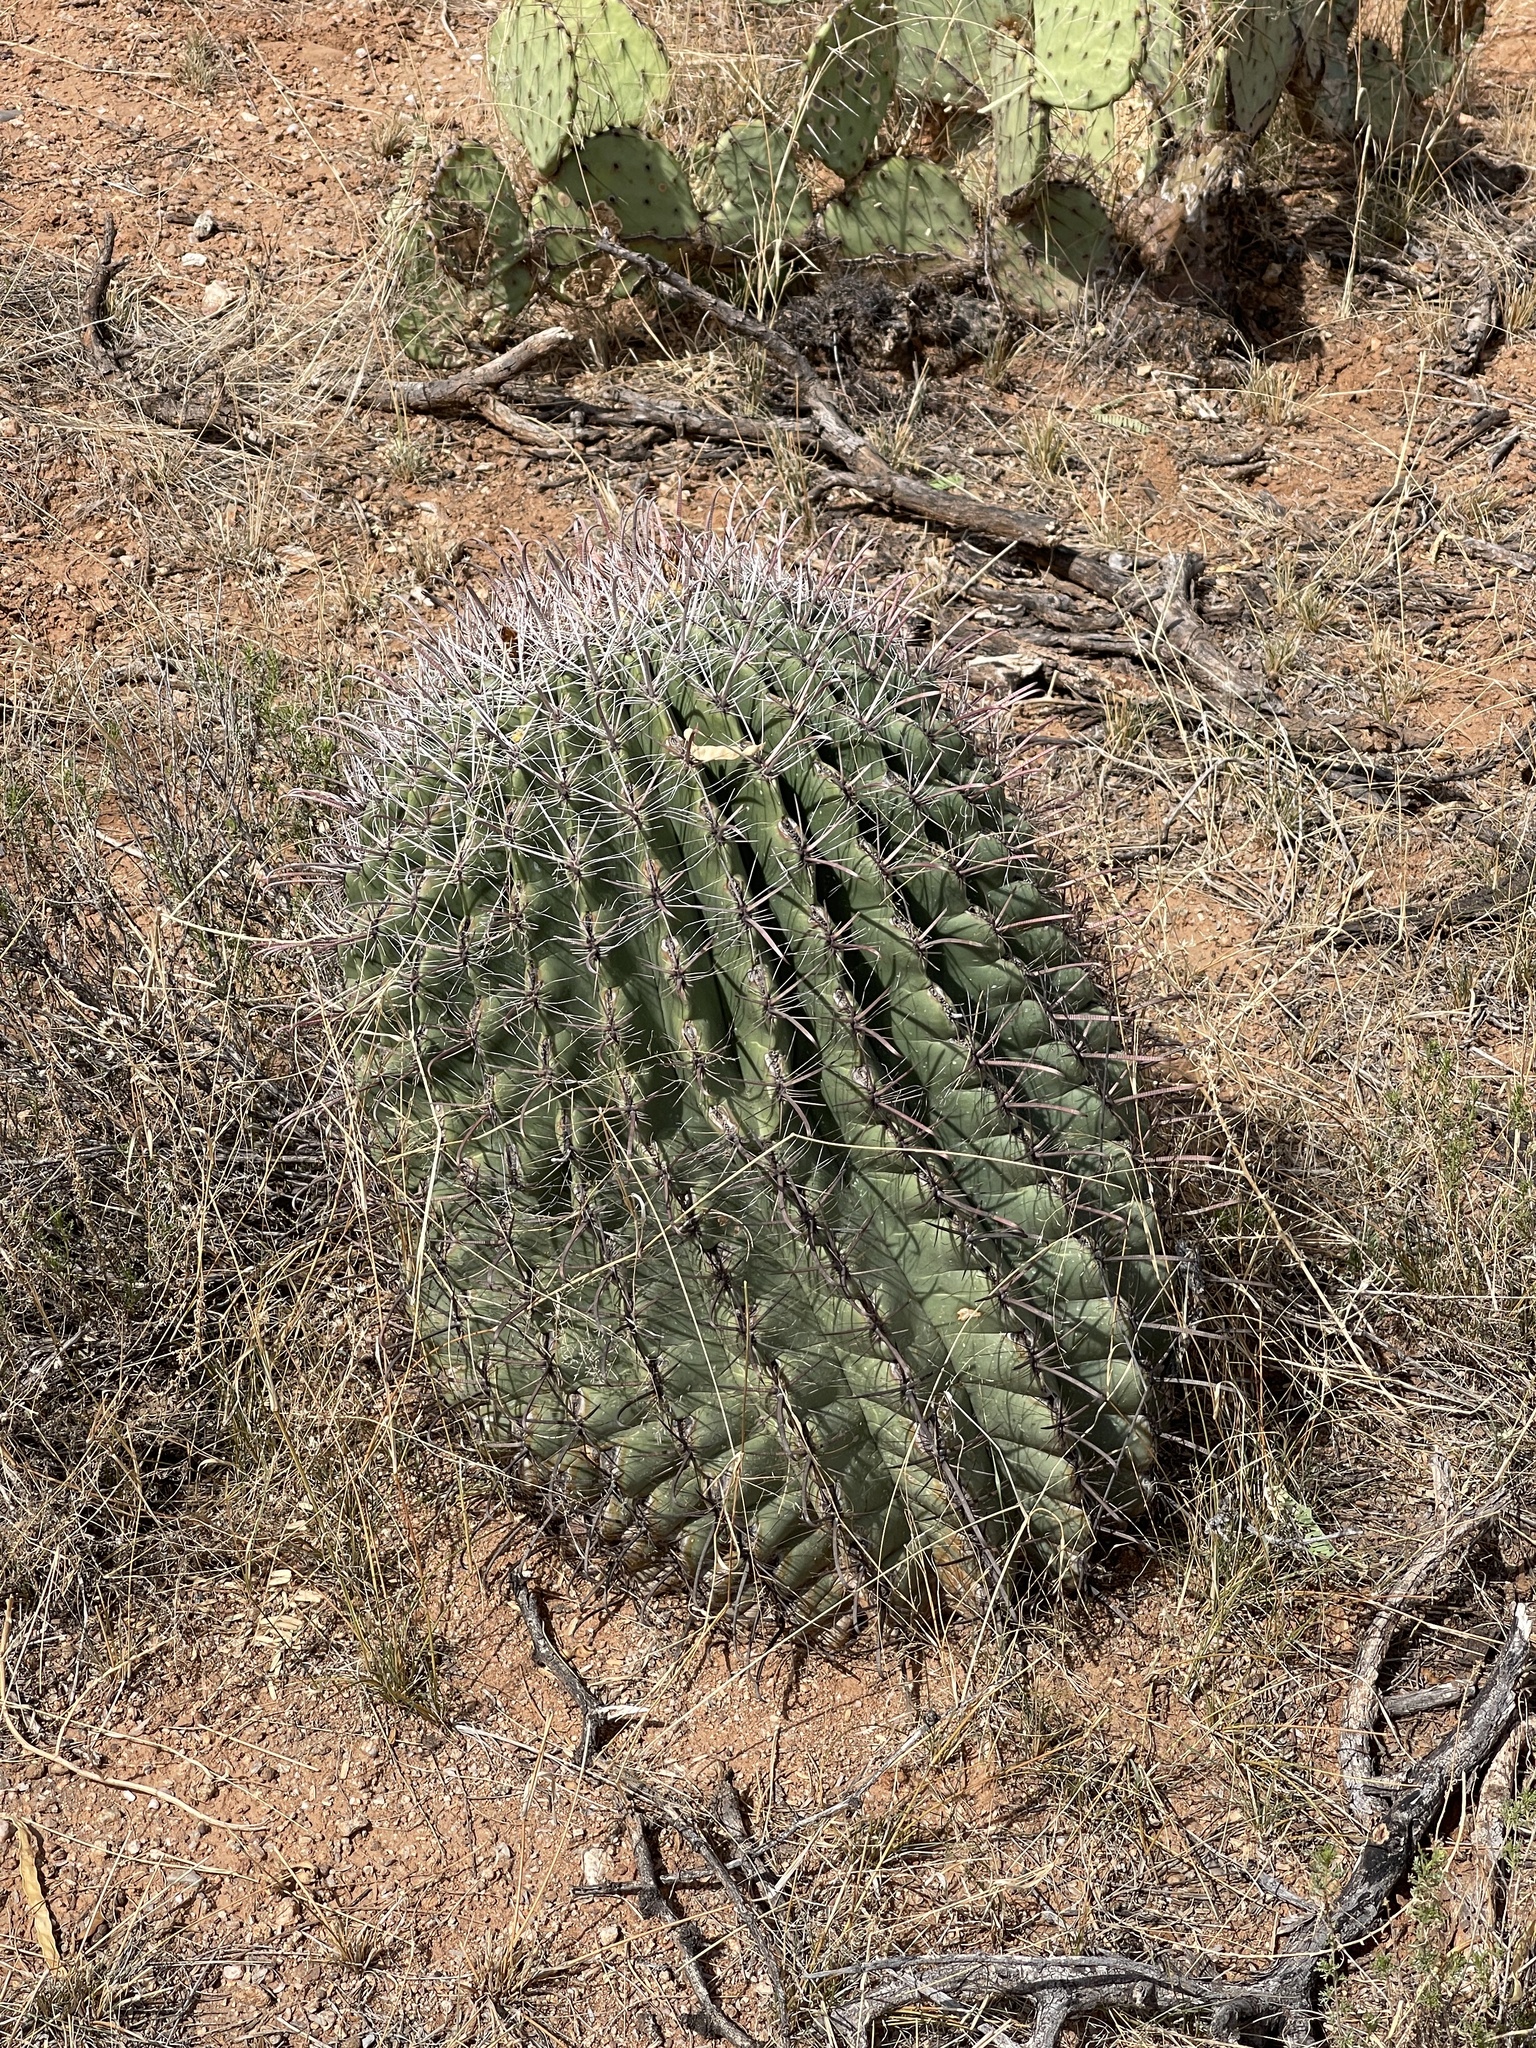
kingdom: Plantae
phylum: Tracheophyta
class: Magnoliopsida
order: Caryophyllales
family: Cactaceae
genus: Ferocactus
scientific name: Ferocactus wislizeni
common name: Candy barrel cactus
